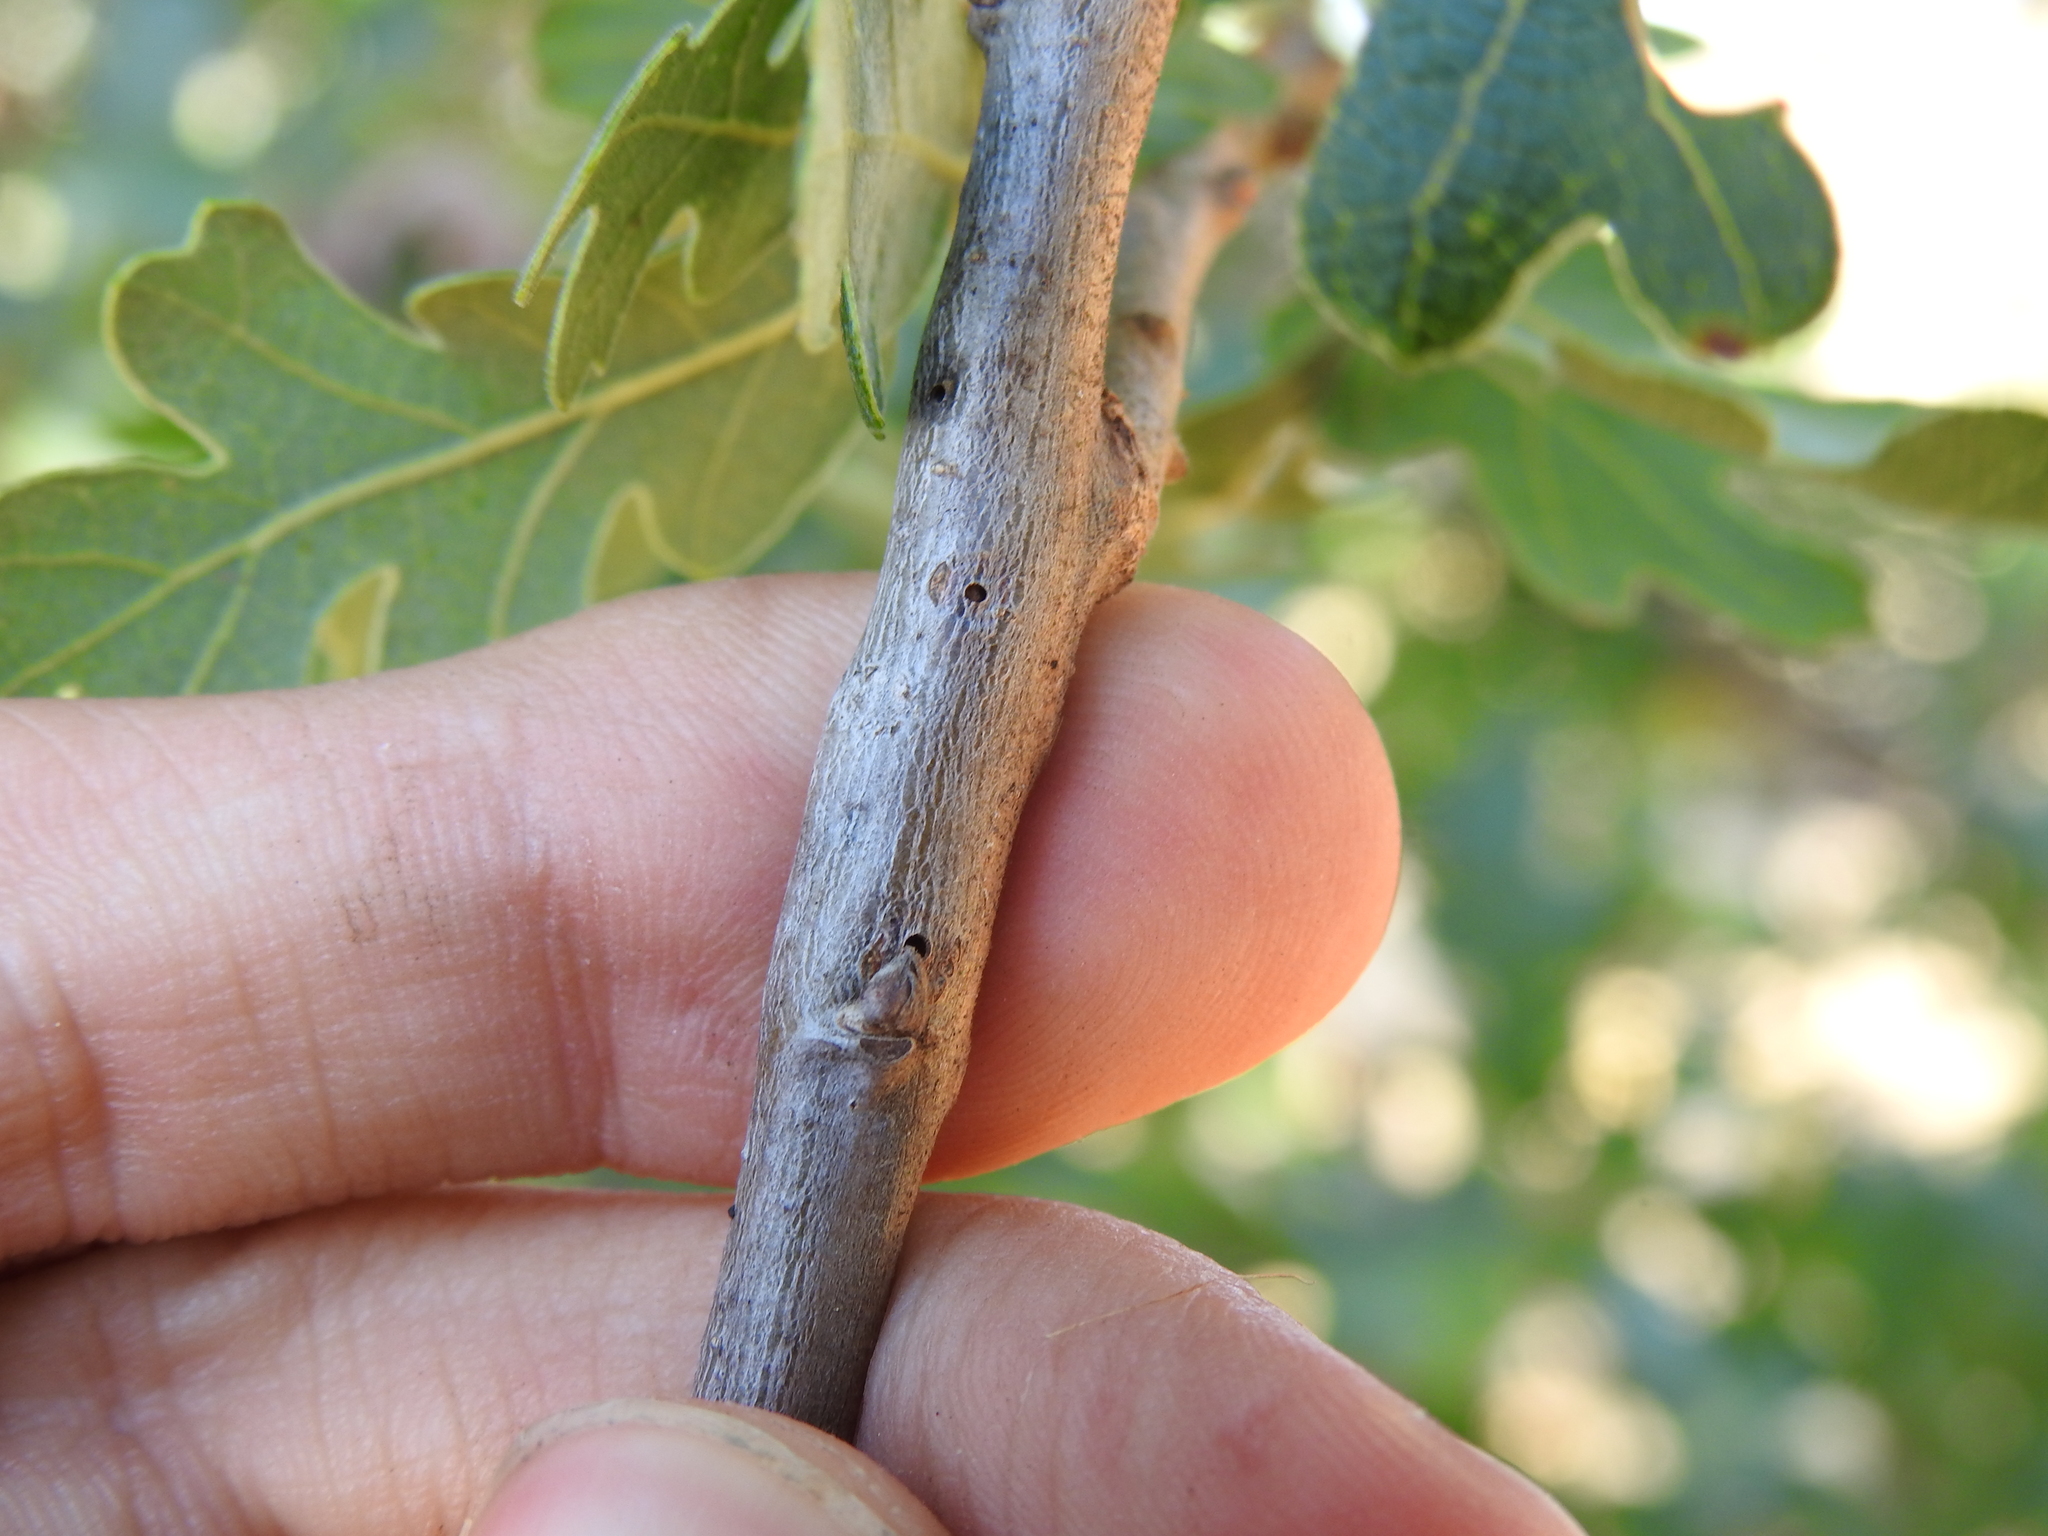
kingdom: Animalia
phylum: Arthropoda
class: Insecta
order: Hymenoptera
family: Cynipidae
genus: Bassettia
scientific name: Bassettia
